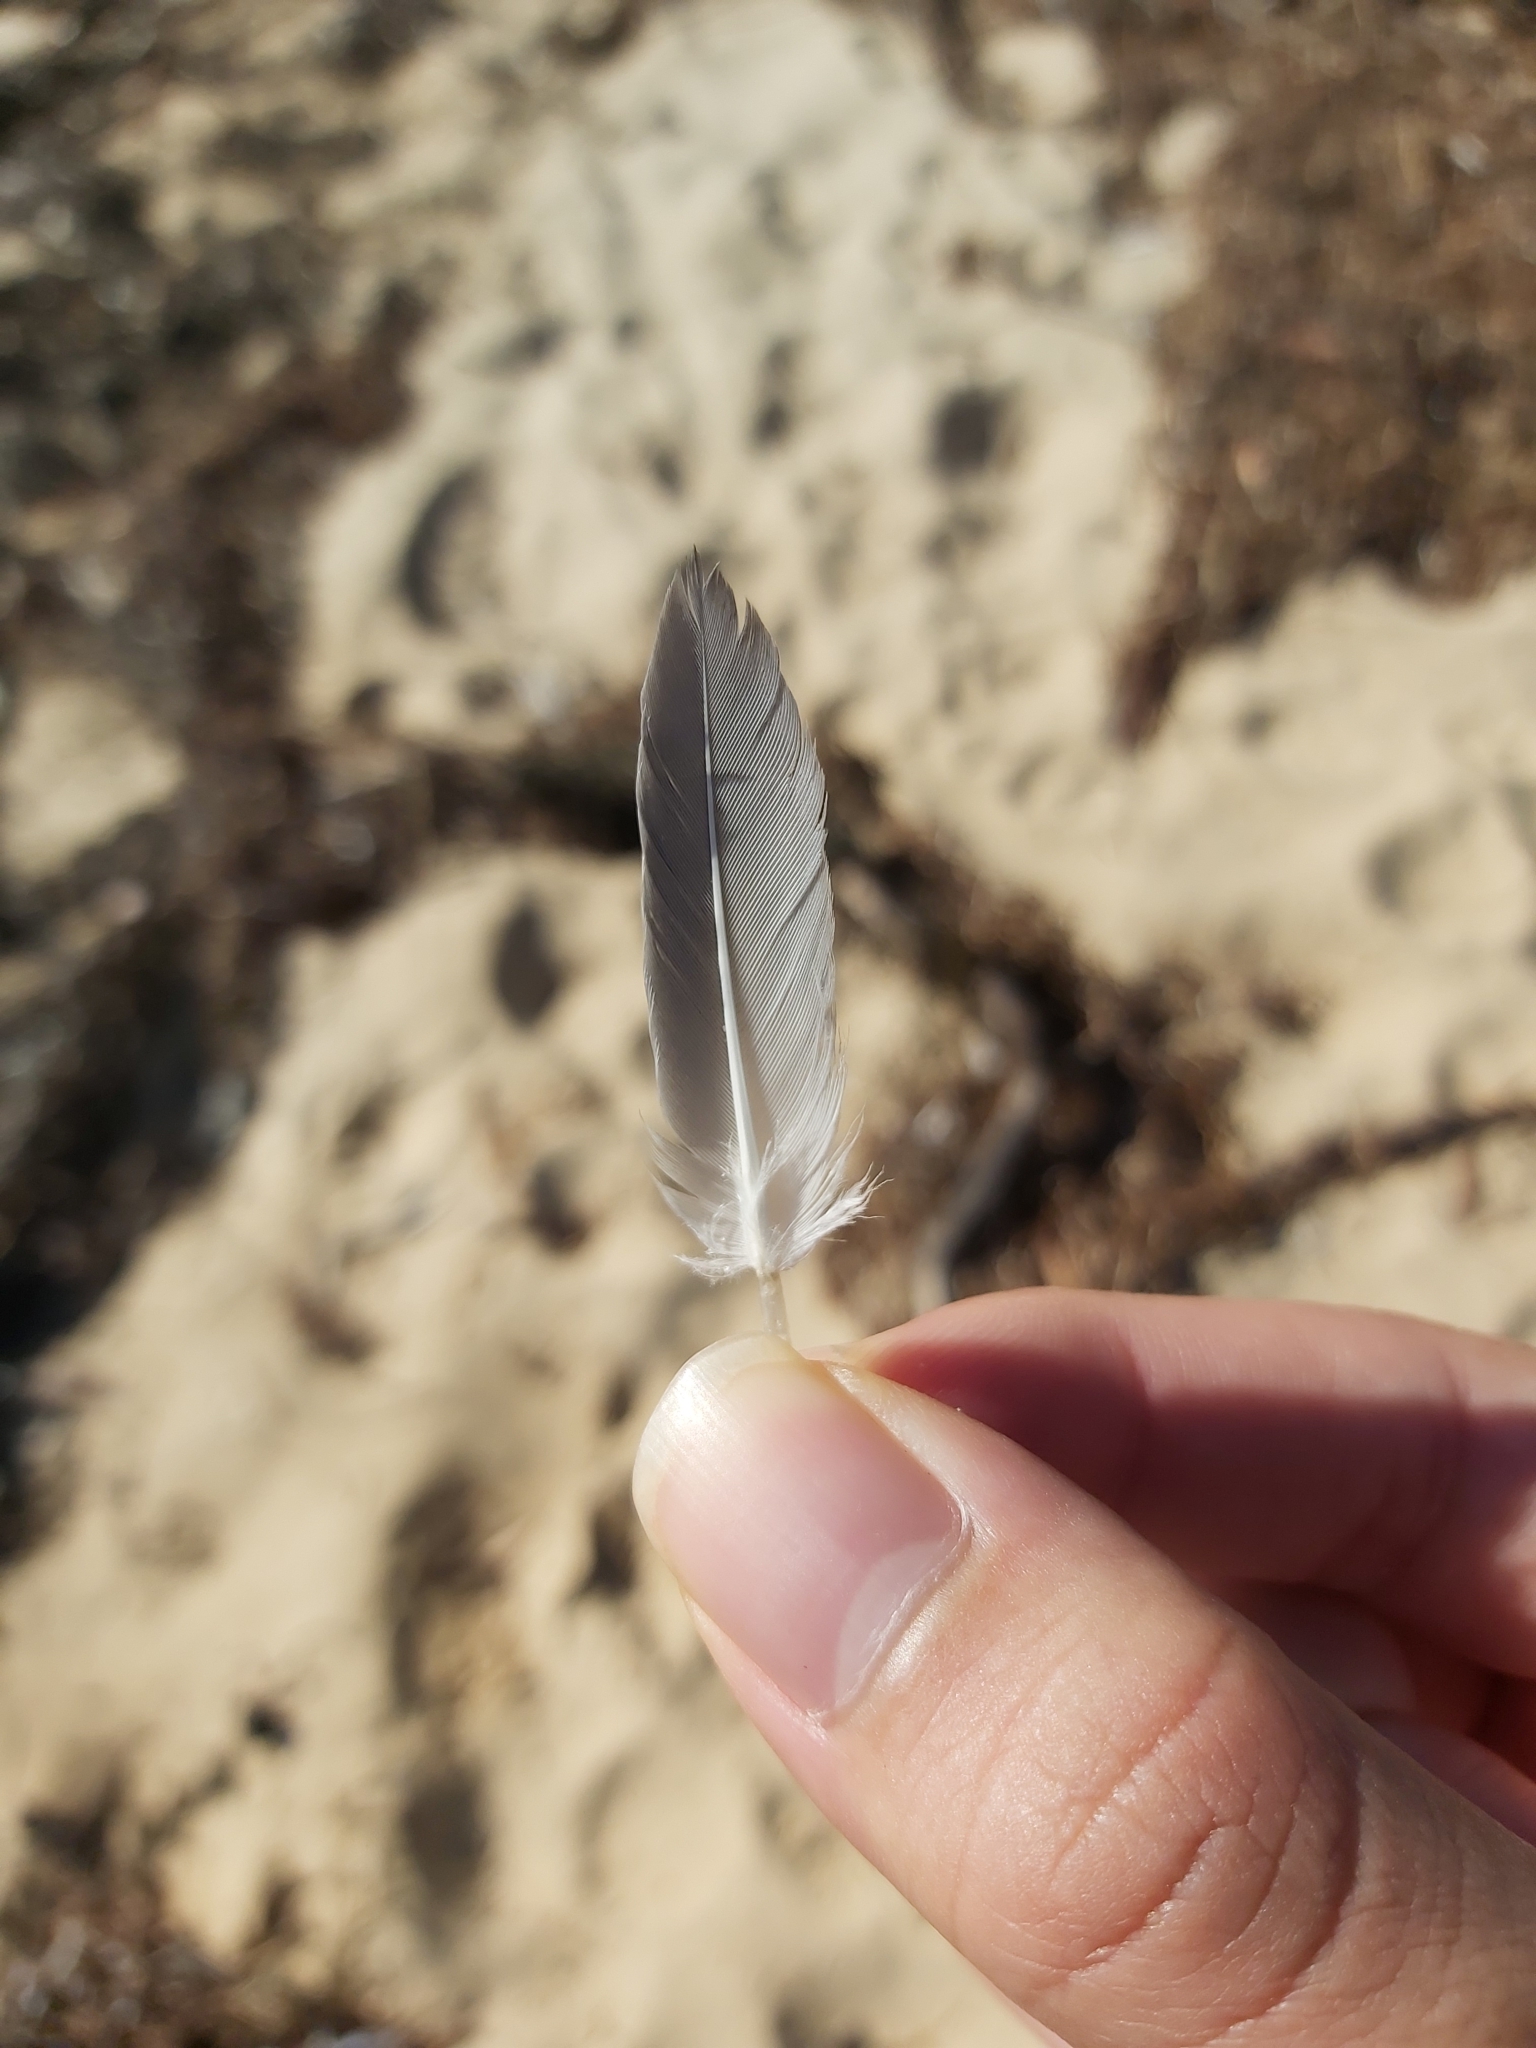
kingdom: Animalia
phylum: Chordata
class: Aves
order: Charadriiformes
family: Laridae
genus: Chroicocephalus
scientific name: Chroicocephalus novaehollandiae
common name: Silver gull
